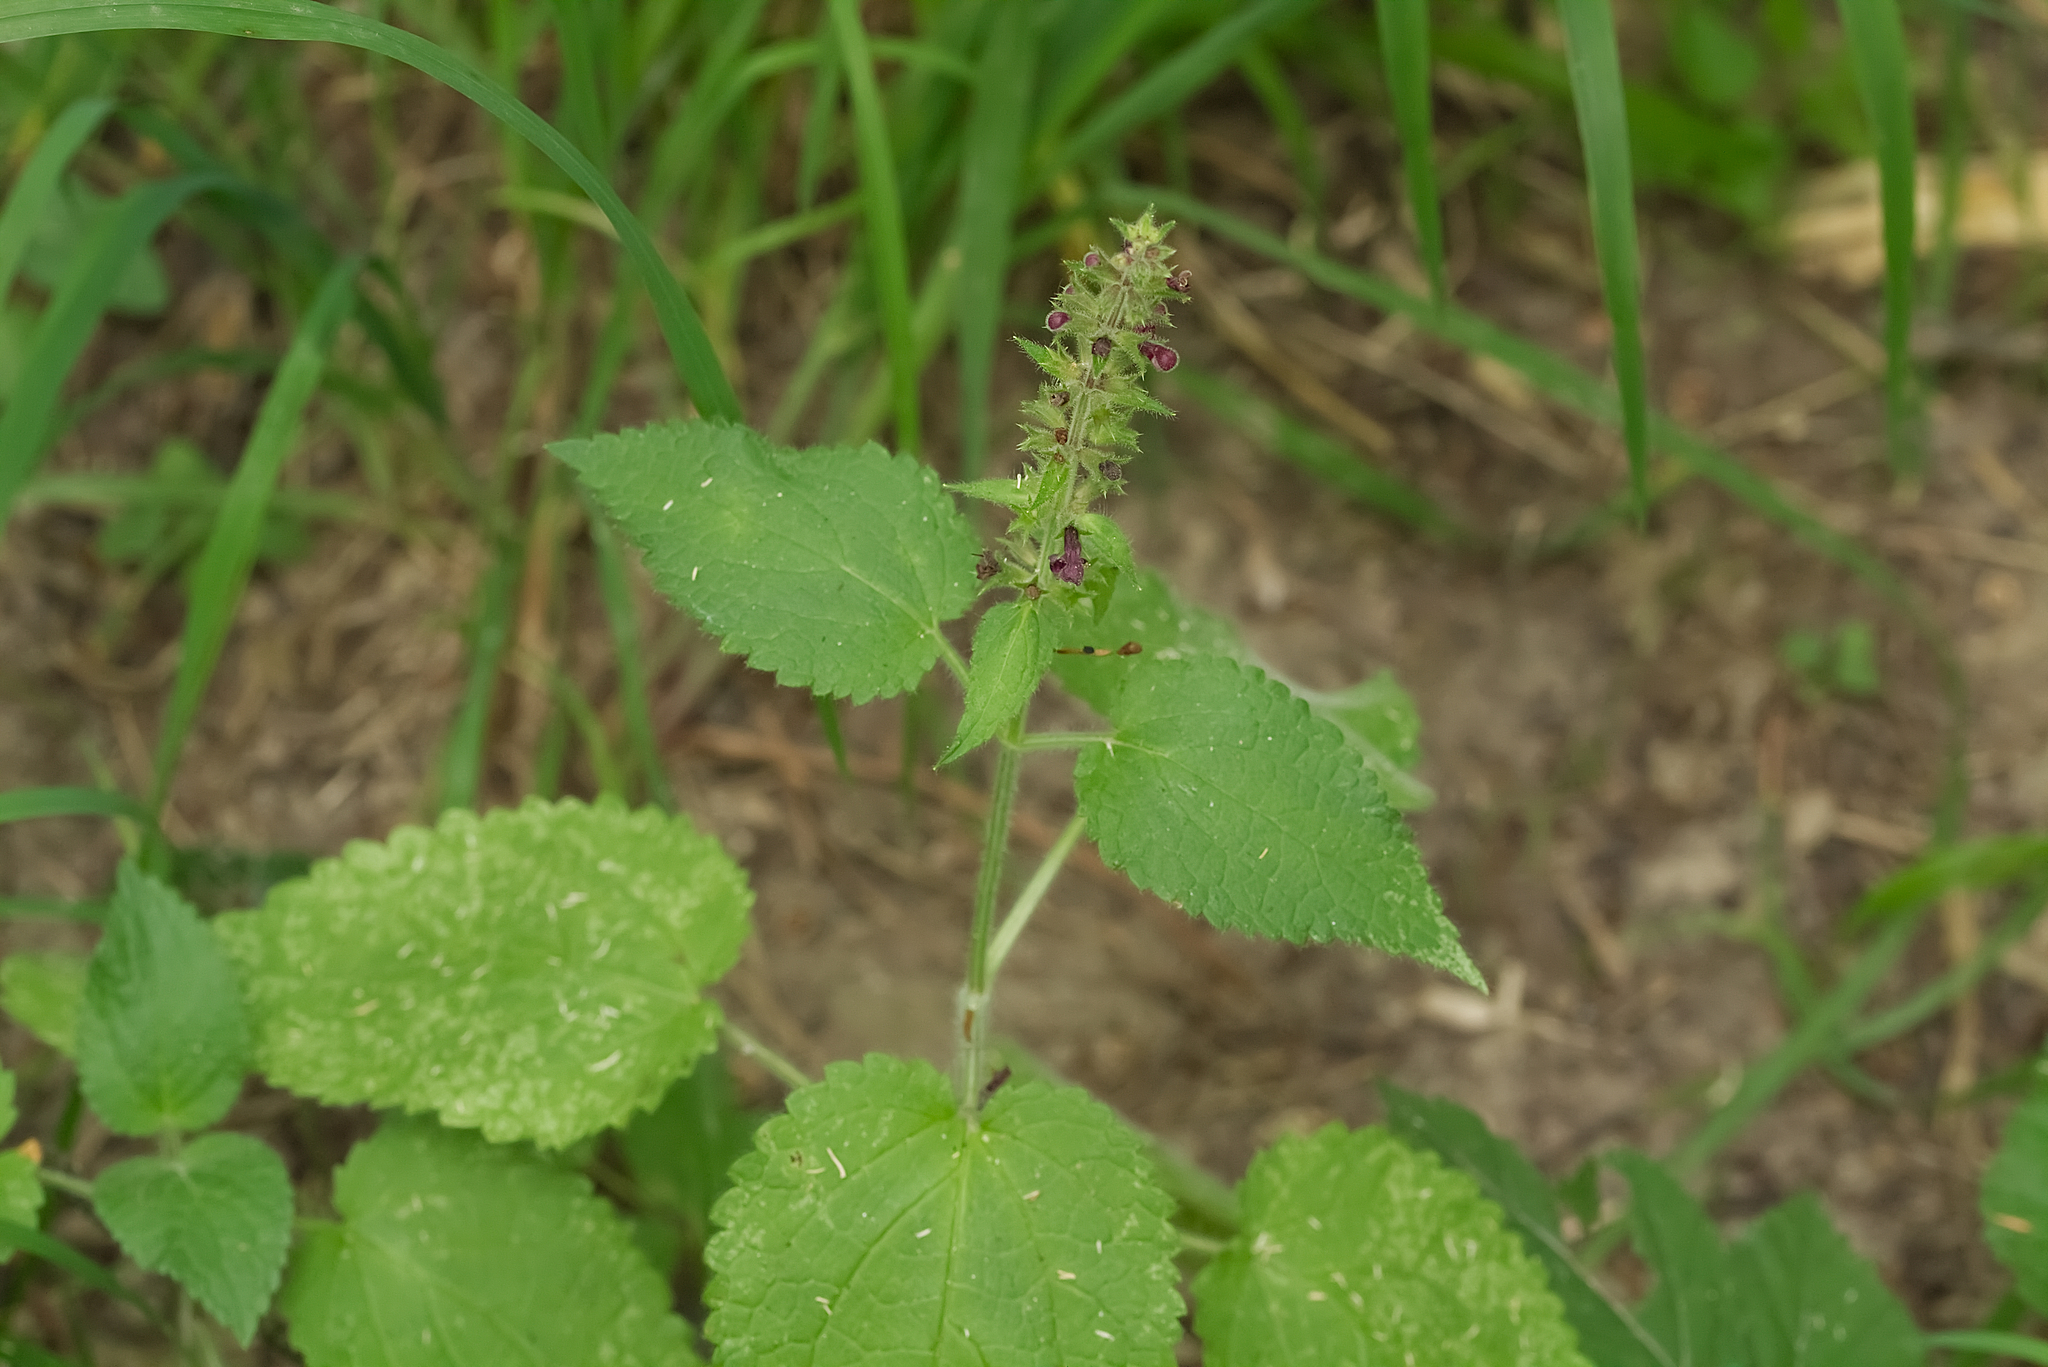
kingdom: Plantae
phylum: Tracheophyta
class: Magnoliopsida
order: Lamiales
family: Lamiaceae
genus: Stachys
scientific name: Stachys sylvatica
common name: Hedge woundwort
